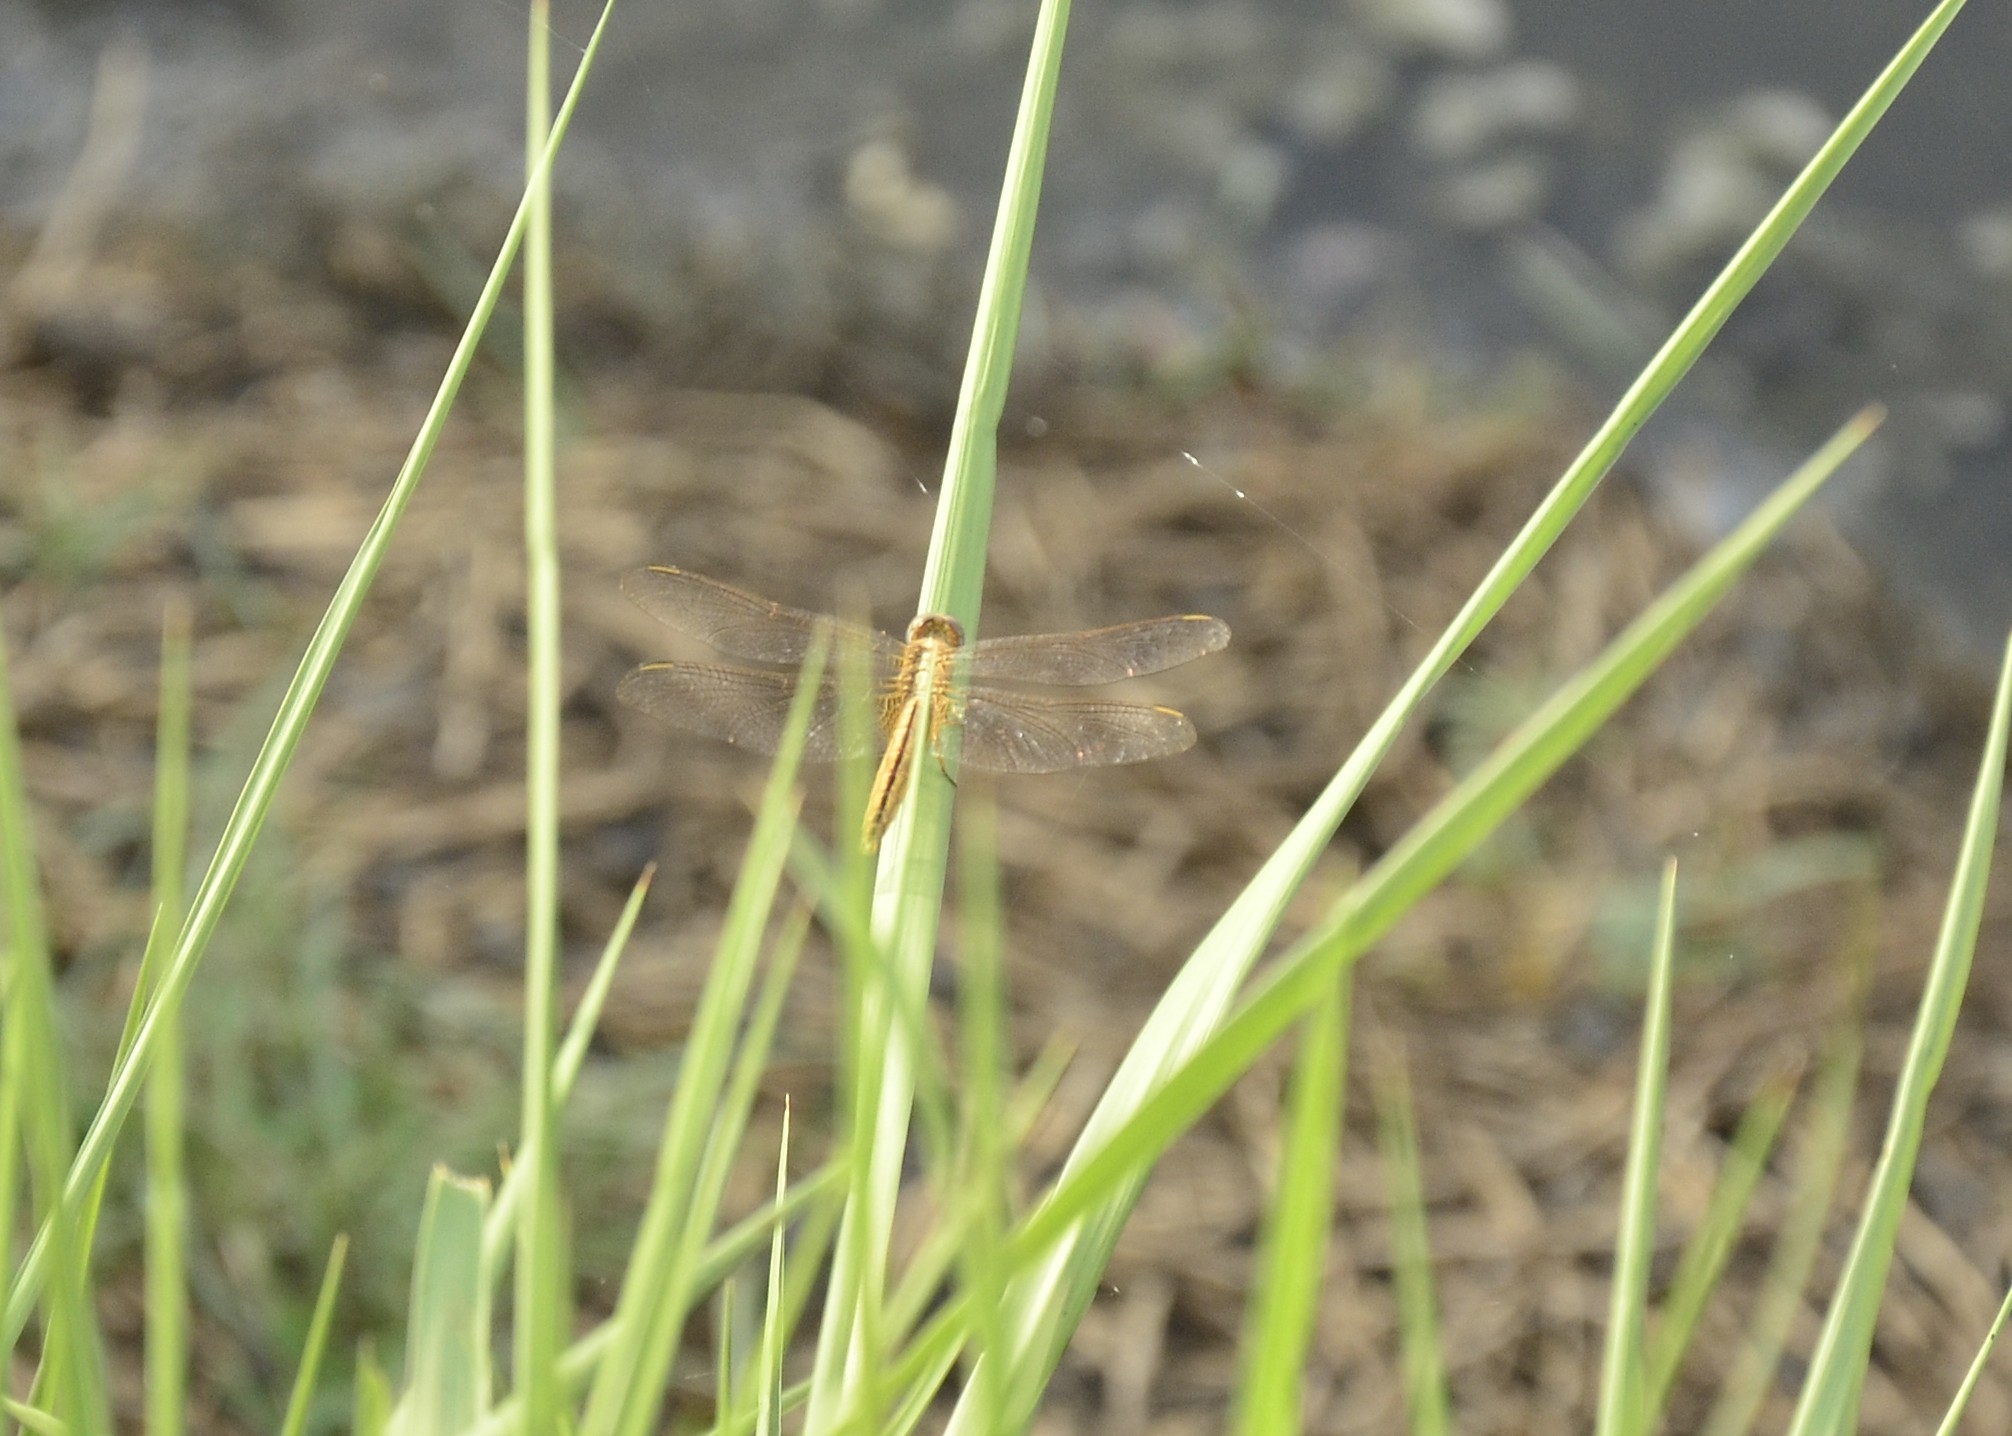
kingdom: Animalia
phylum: Arthropoda
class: Insecta
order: Odonata
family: Libellulidae
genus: Crocothemis
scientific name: Crocothemis servilia
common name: Scarlet skimmer
